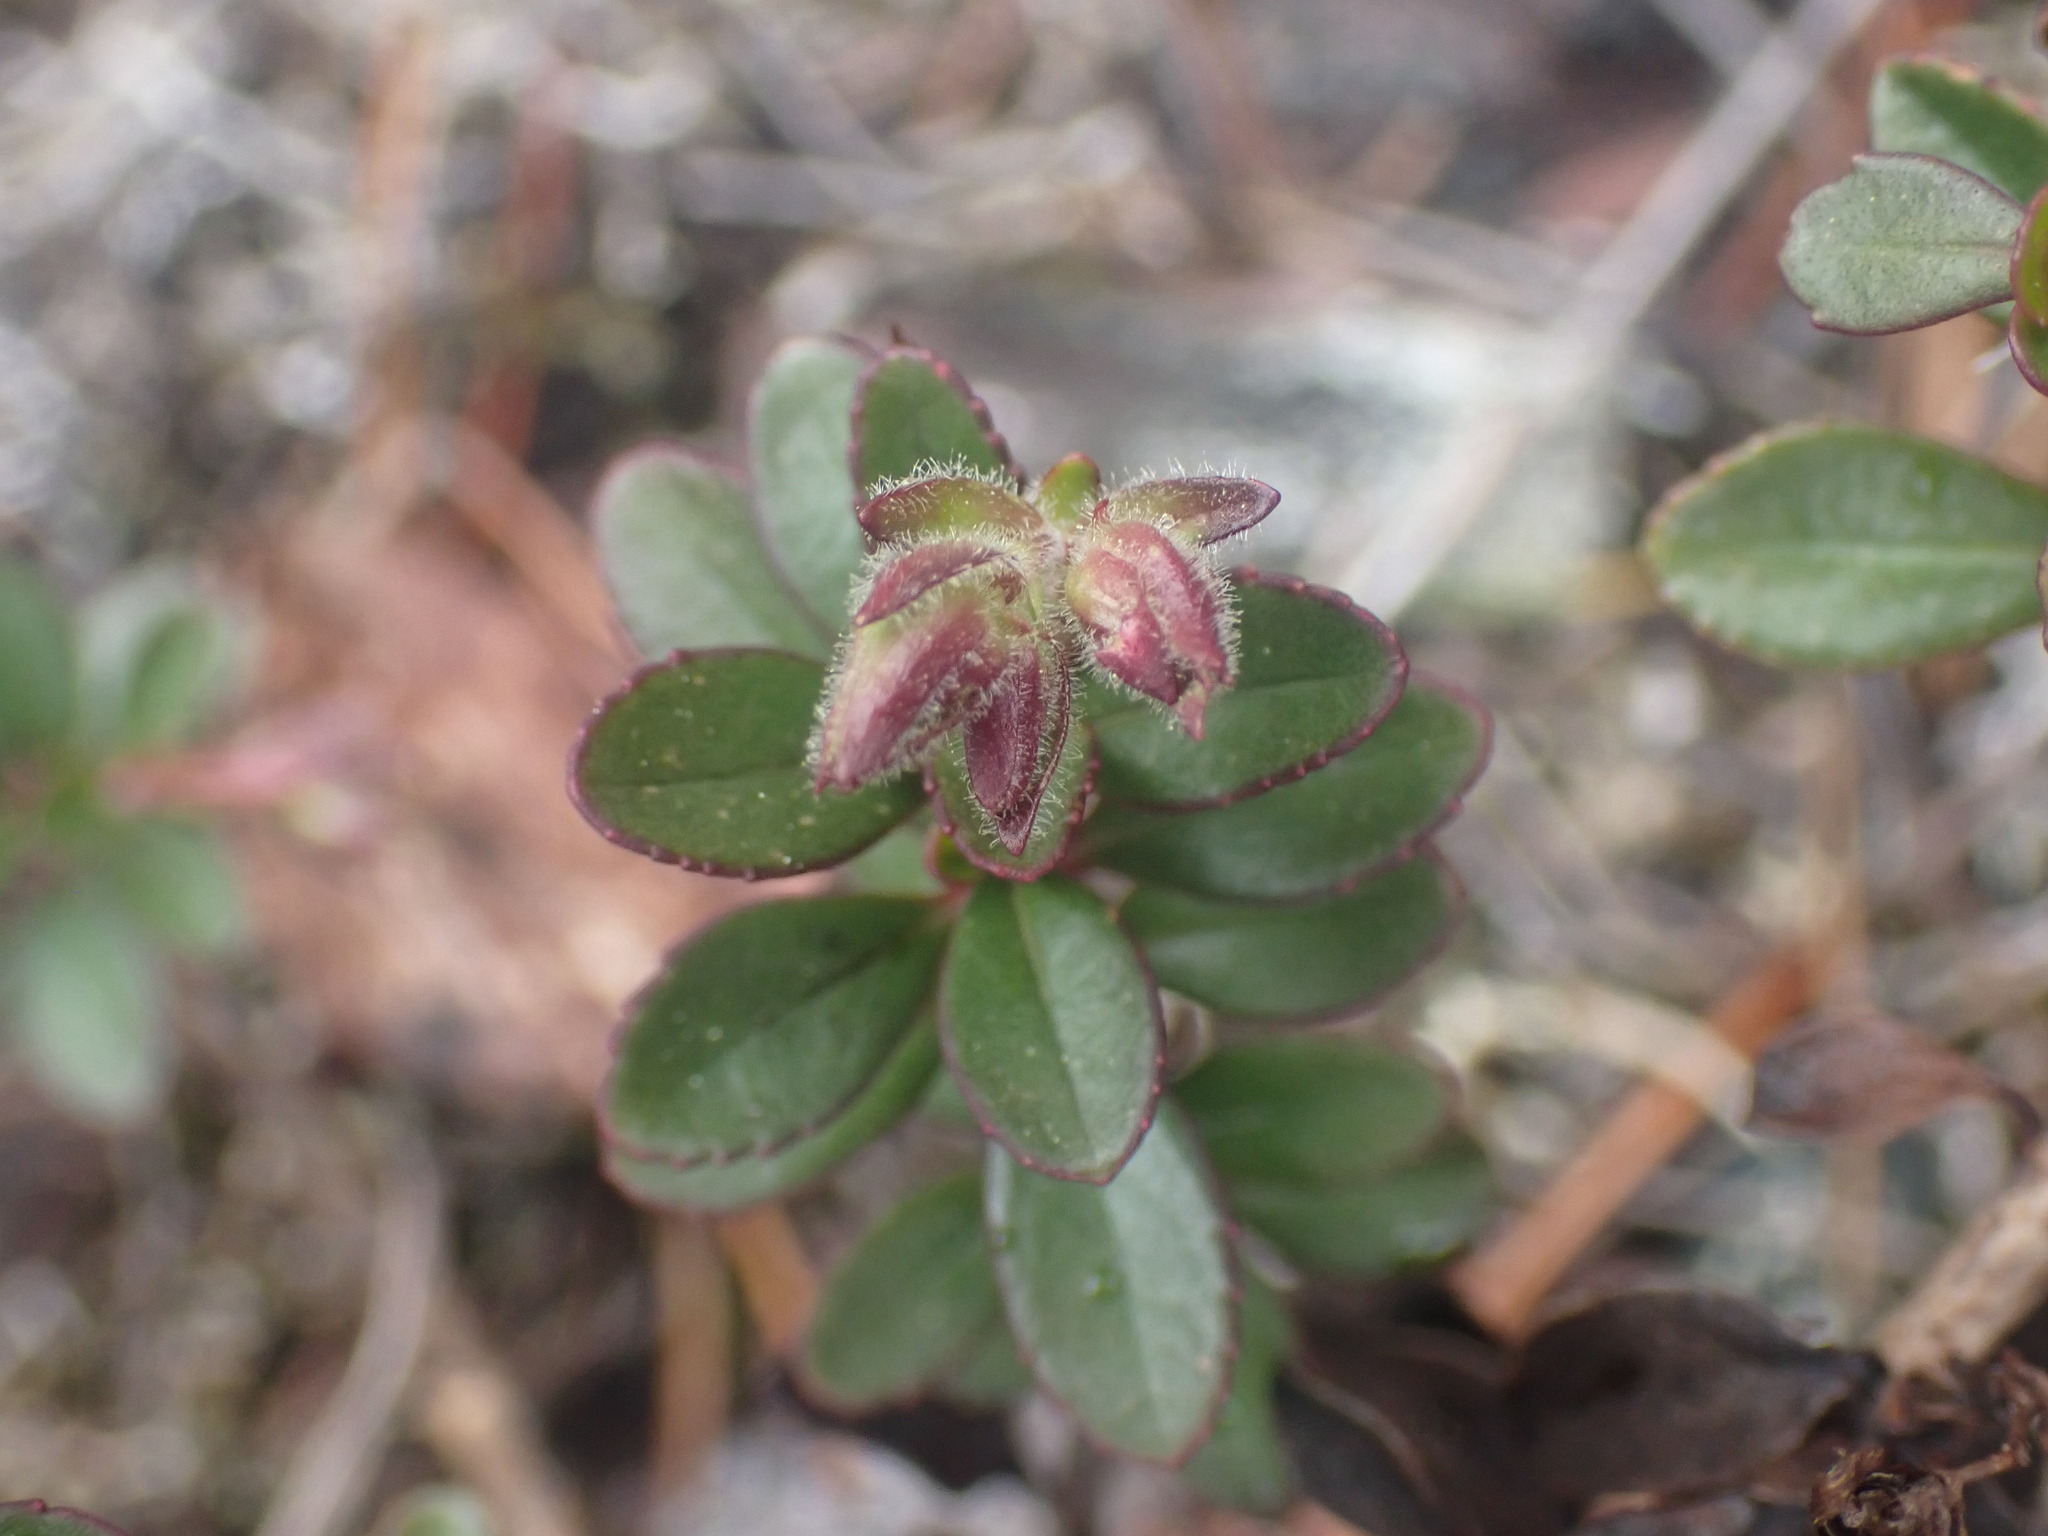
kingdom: Plantae
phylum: Tracheophyta
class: Magnoliopsida
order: Lamiales
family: Plantaginaceae
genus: Penstemon
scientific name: Penstemon davidsonii
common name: Davidson's penstemon
